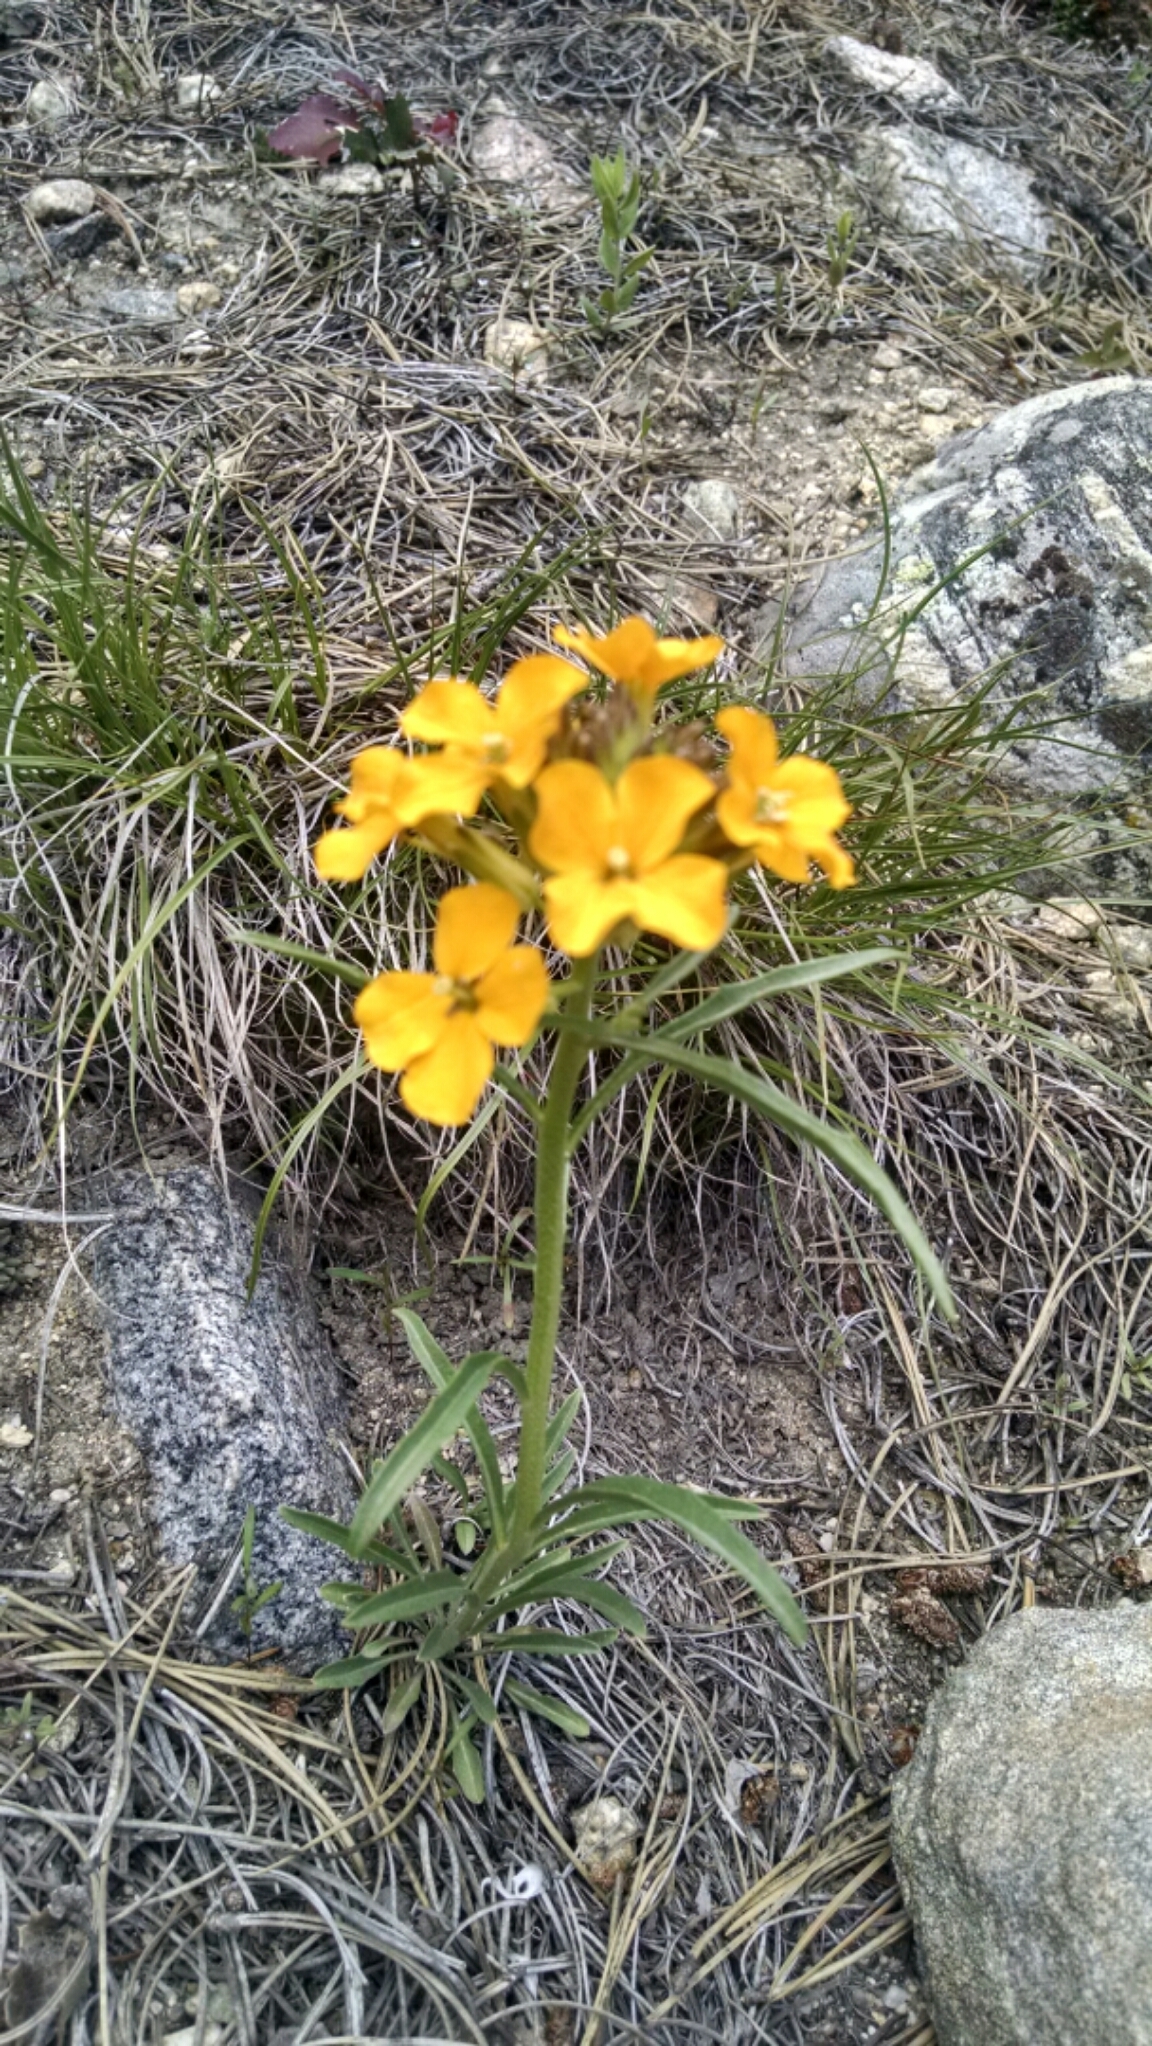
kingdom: Plantae
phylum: Tracheophyta
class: Magnoliopsida
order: Brassicales
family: Brassicaceae
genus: Erysimum
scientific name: Erysimum capitatum
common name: Western wallflower
